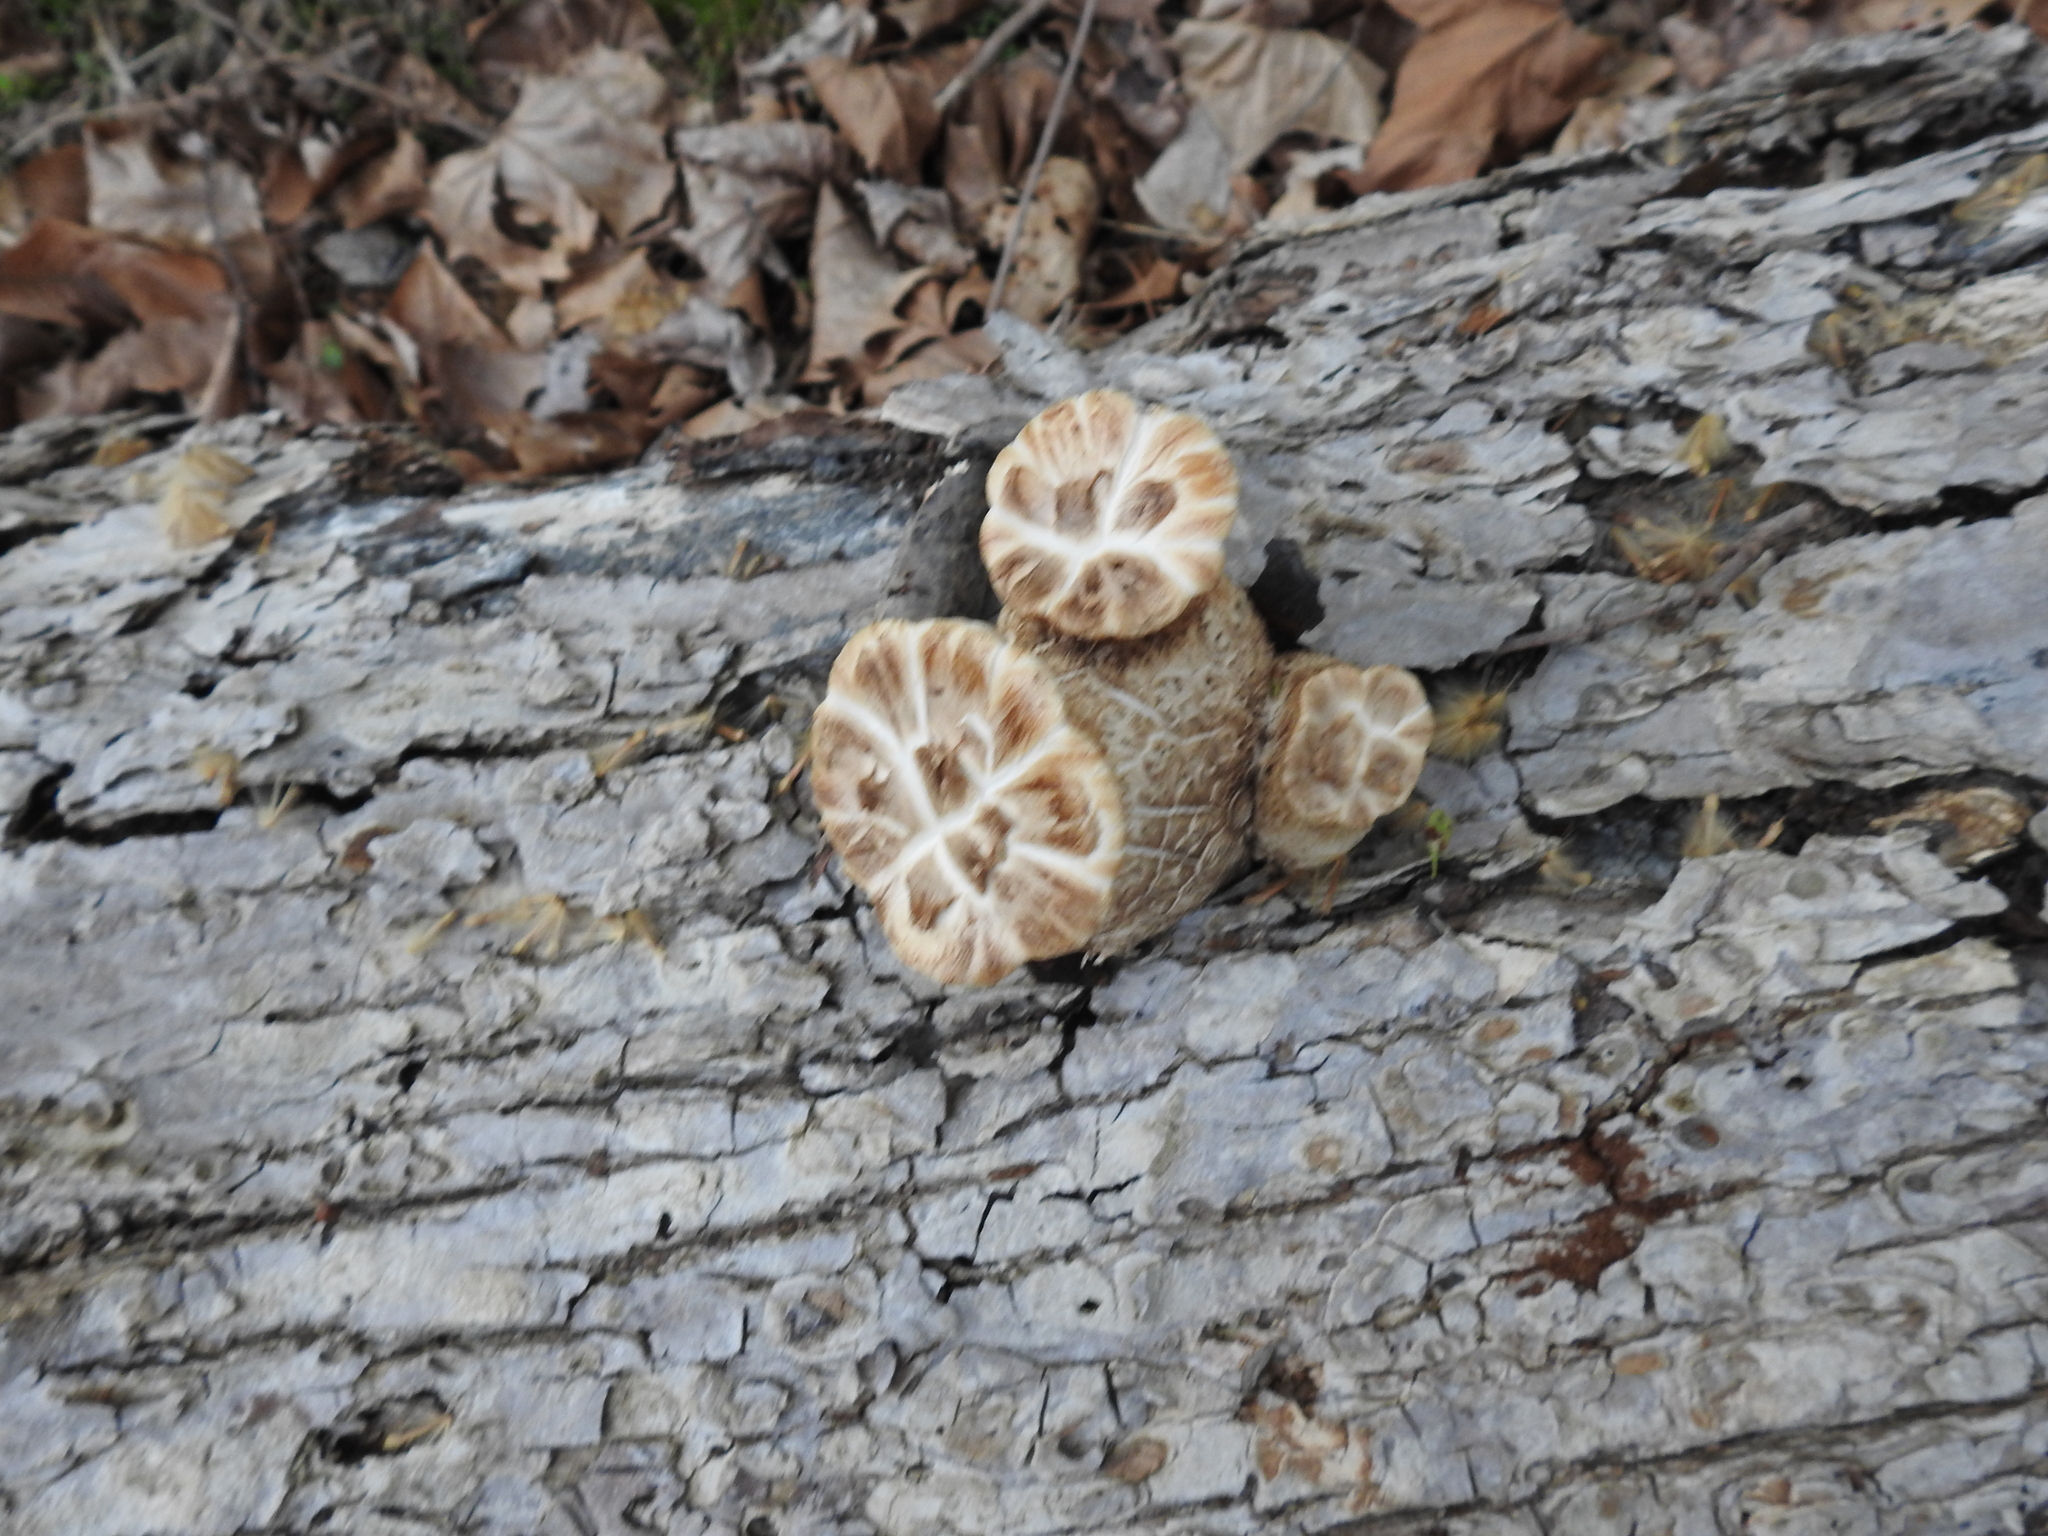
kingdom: Fungi
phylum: Basidiomycota
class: Agaricomycetes
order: Polyporales
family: Polyporaceae
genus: Cerioporus
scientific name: Cerioporus squamosus
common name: Dryad's saddle
